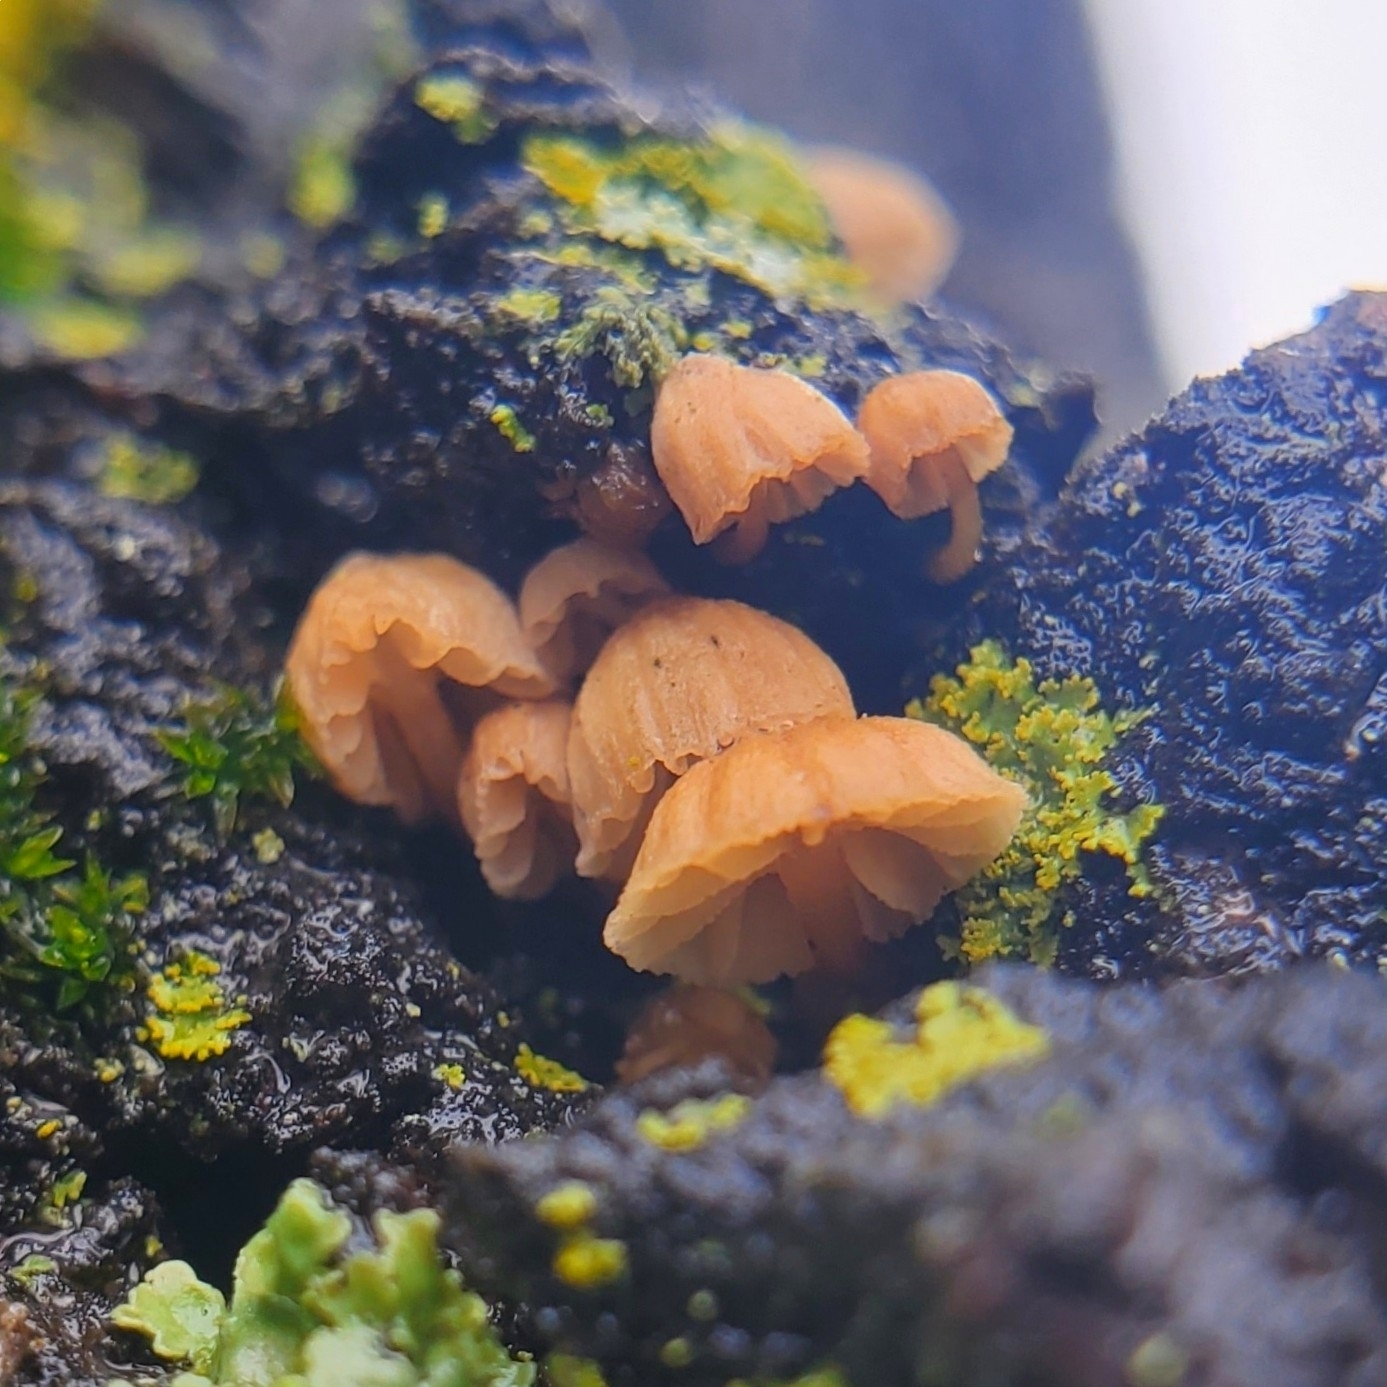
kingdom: Fungi
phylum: Basidiomycota
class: Agaricomycetes
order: Agaricales
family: Mycenaceae
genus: Mycena
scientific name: Mycena meliigena
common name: Mauve bonnet
